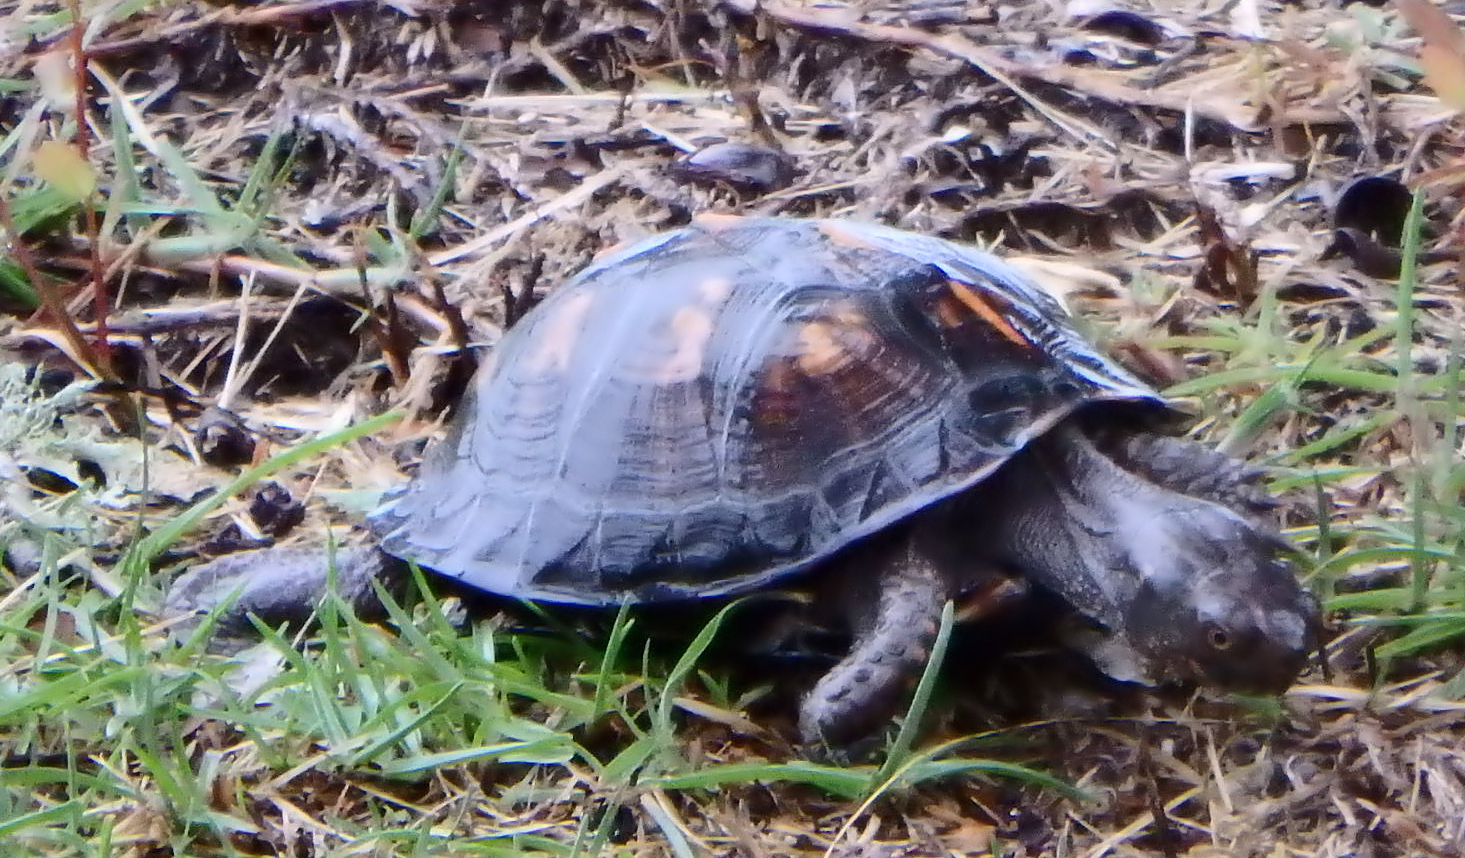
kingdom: Animalia
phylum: Chordata
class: Testudines
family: Emydidae
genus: Terrapene
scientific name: Terrapene carolina
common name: Common box turtle
